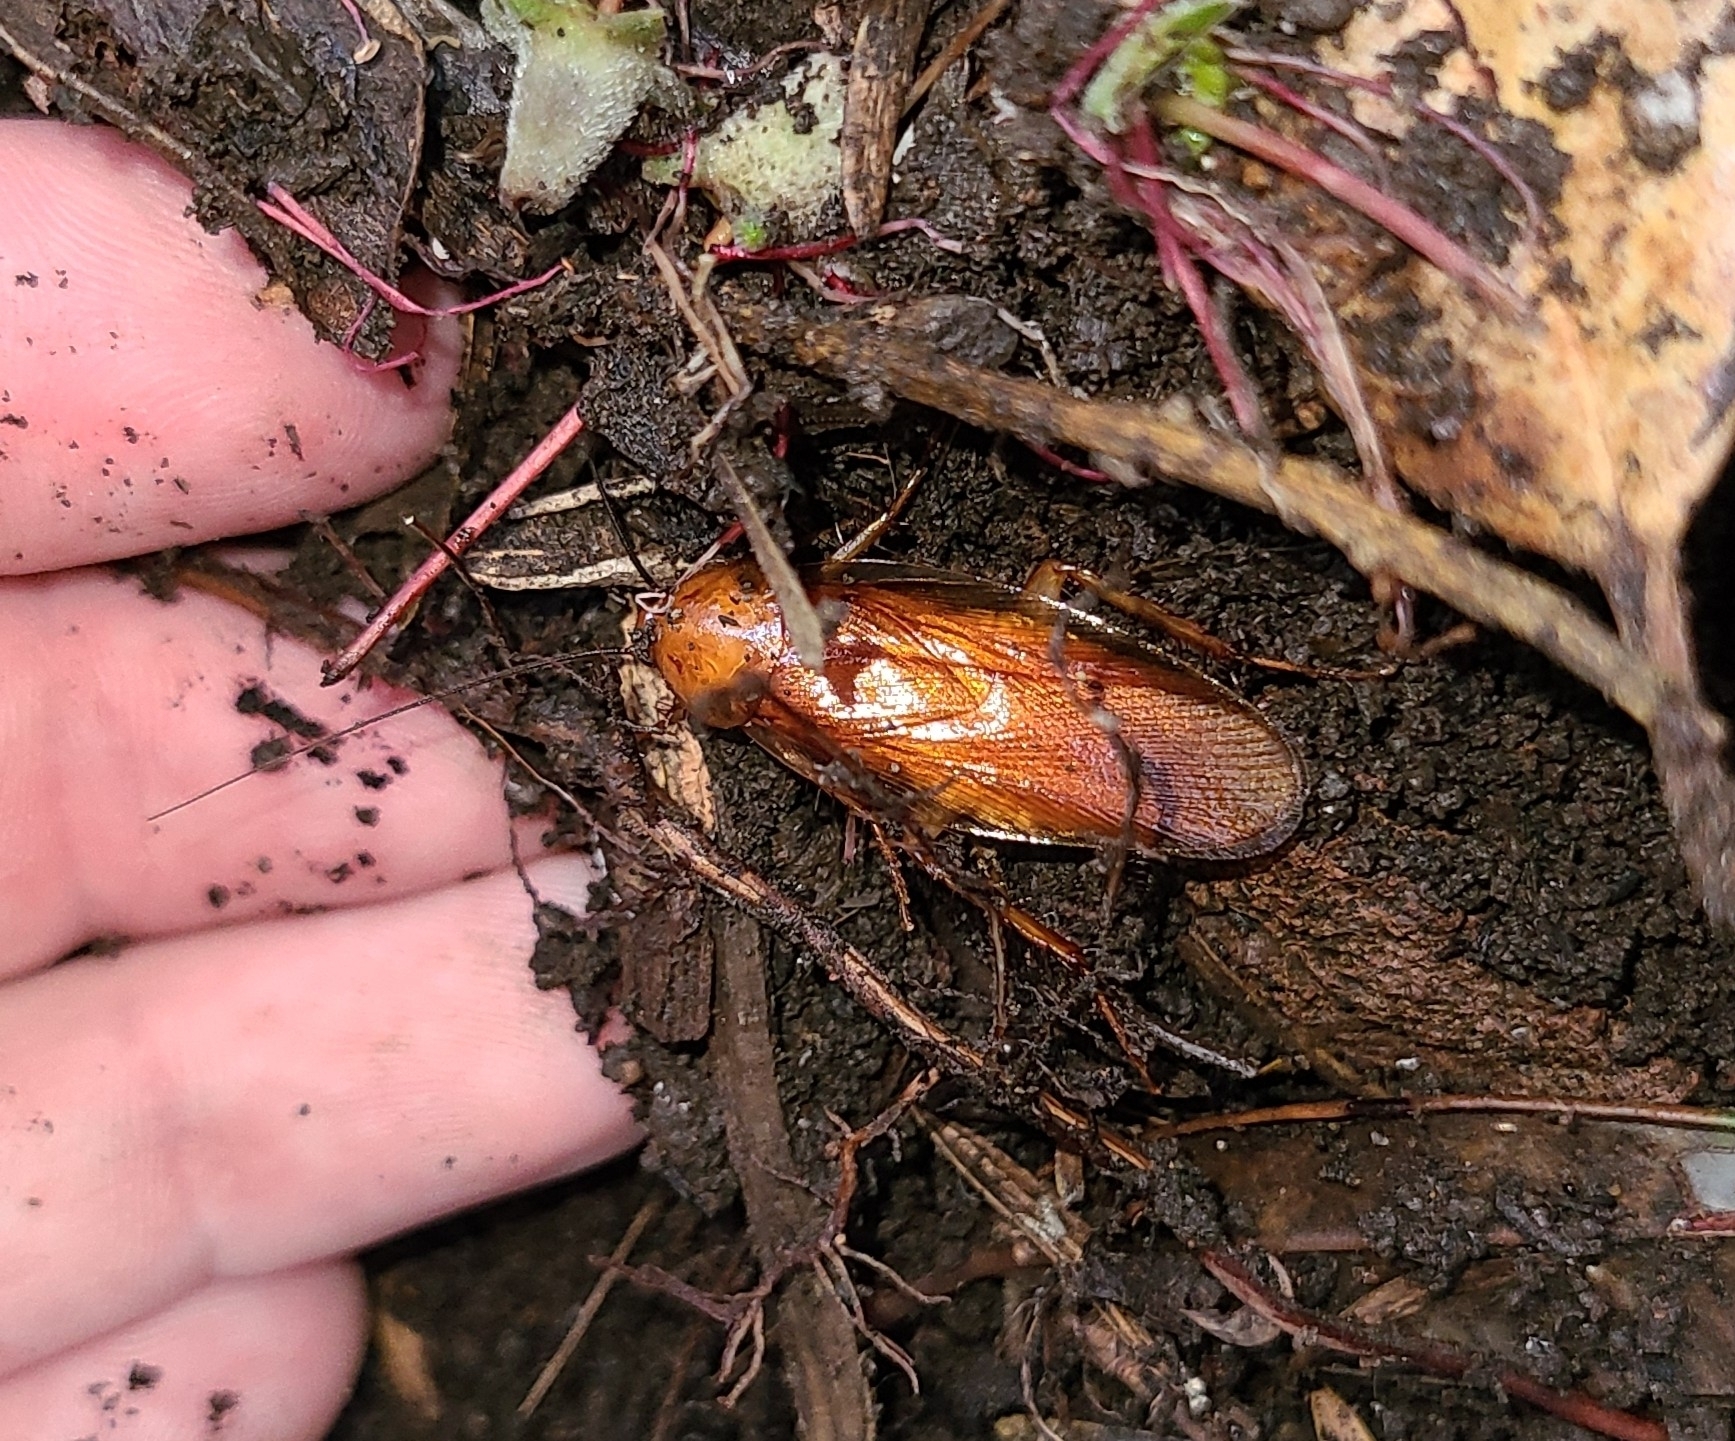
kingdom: Animalia
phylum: Arthropoda
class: Insecta
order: Blattodea
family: Ectobiidae
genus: Neotemnopteryx
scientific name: Neotemnopteryx fulva
